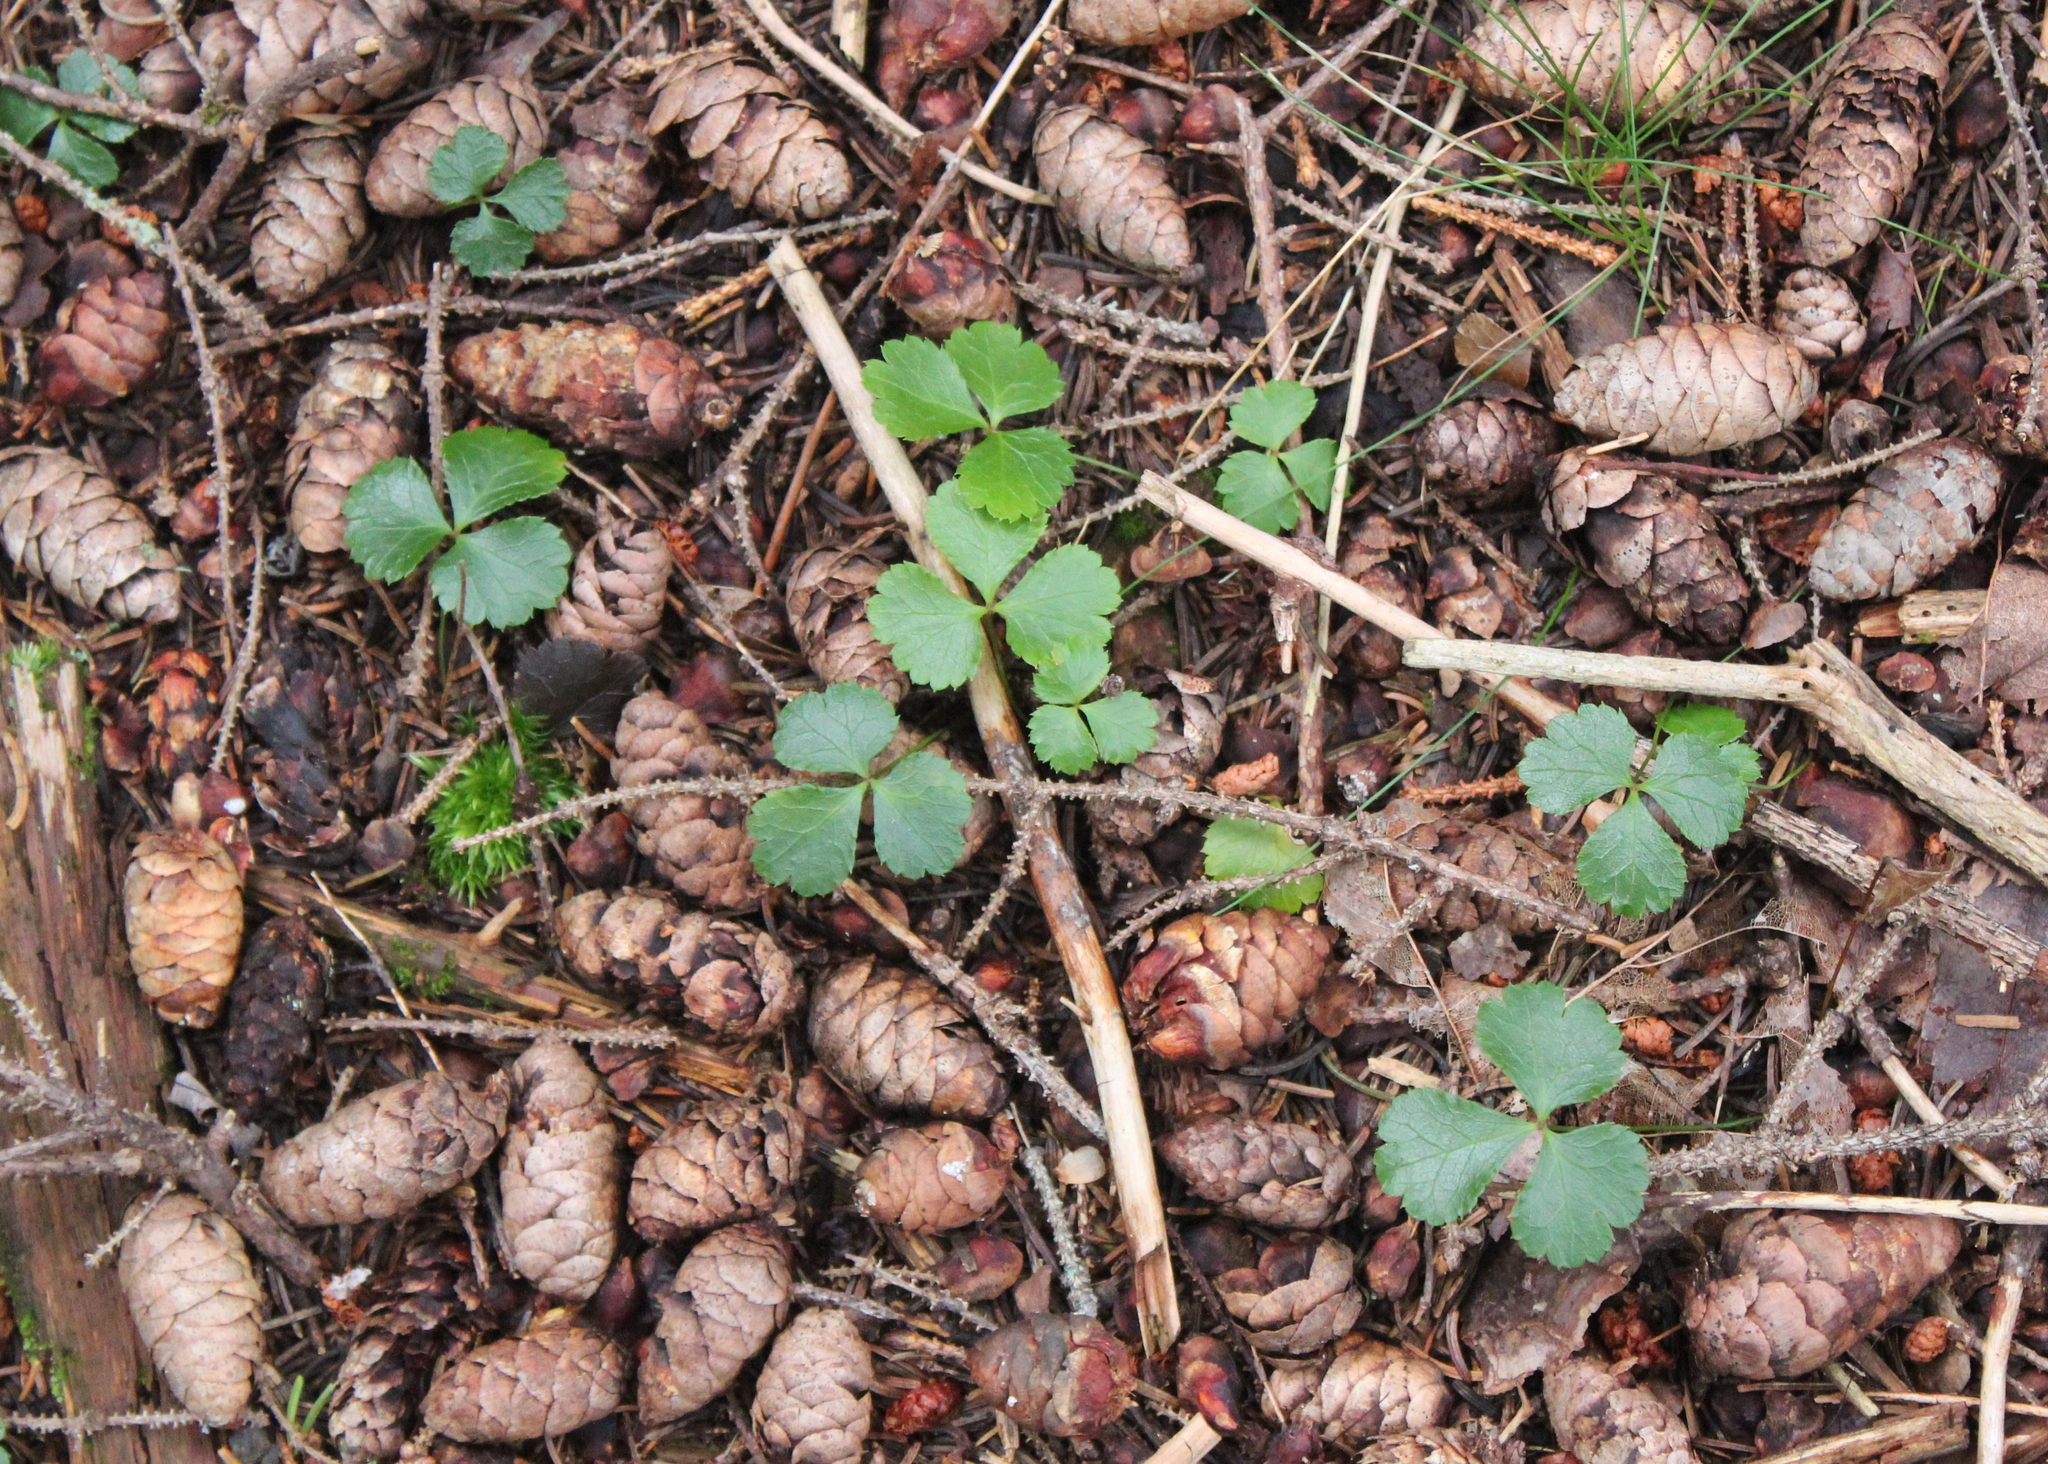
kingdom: Plantae
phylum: Tracheophyta
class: Magnoliopsida
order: Ranunculales
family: Ranunculaceae
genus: Coptis
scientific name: Coptis trifolia
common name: Canker-root
